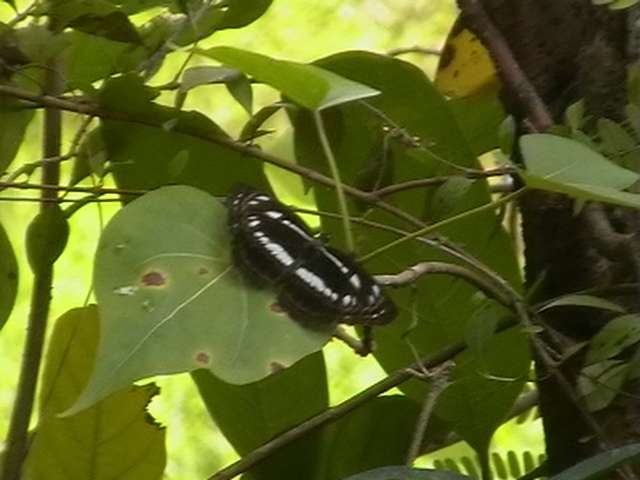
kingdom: Animalia
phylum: Arthropoda
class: Insecta
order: Lepidoptera
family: Nymphalidae
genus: Neptis
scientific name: Neptis jumbah
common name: Chestnut-streaked sailer
